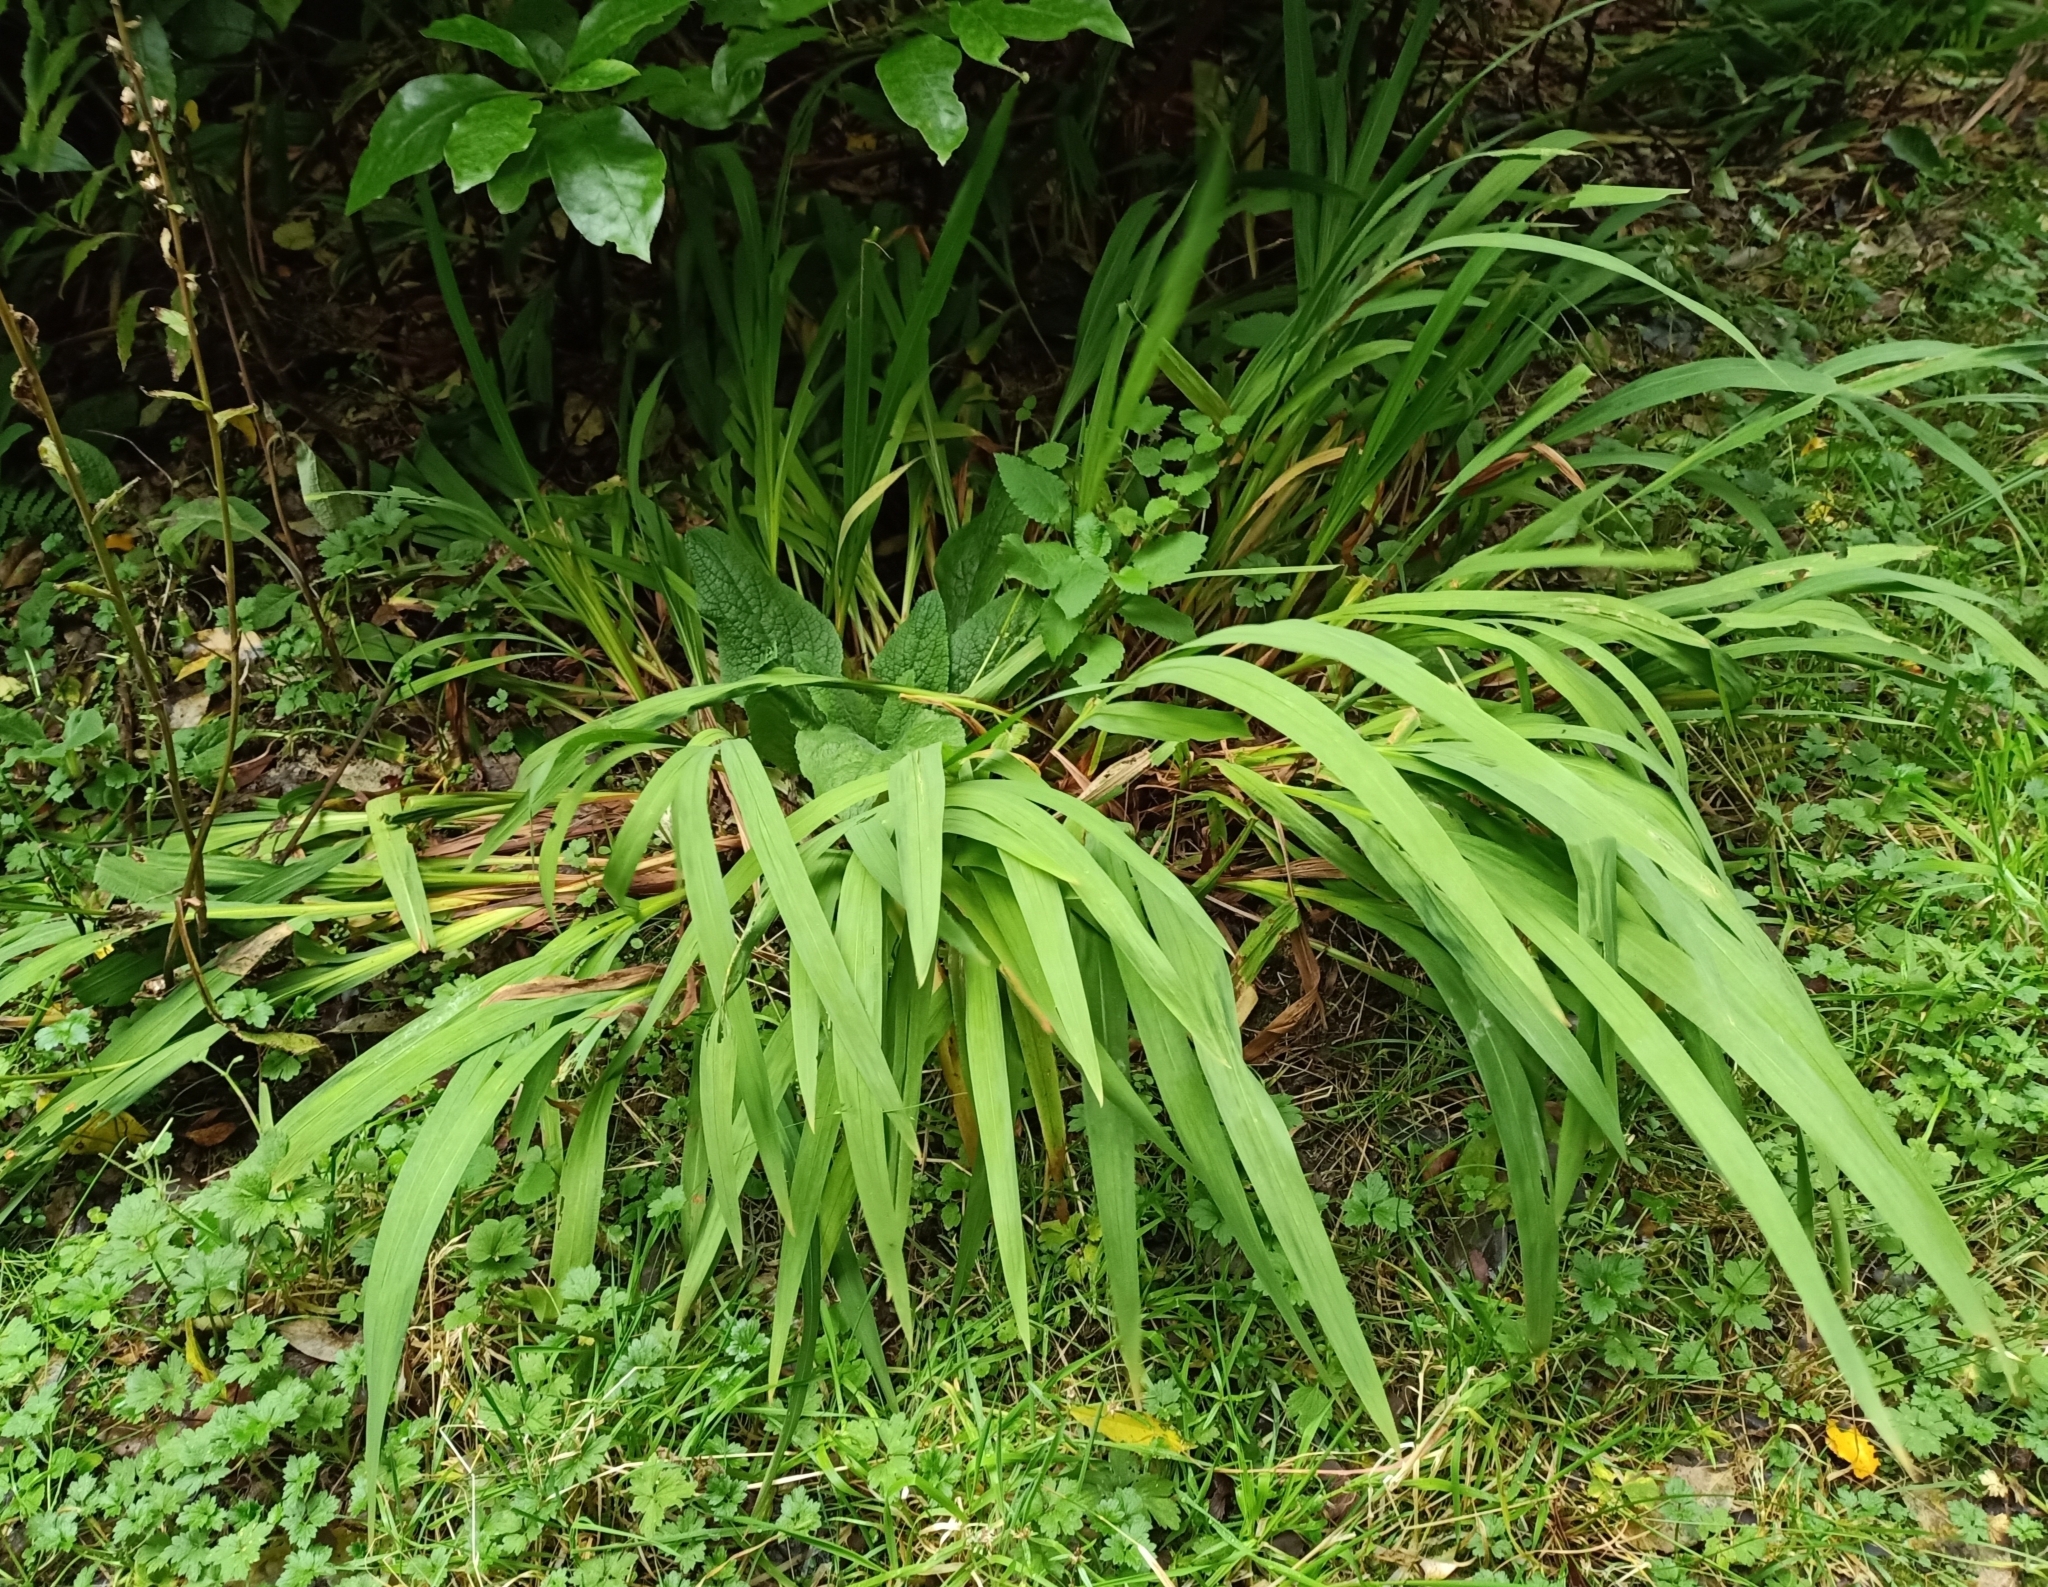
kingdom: Plantae
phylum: Tracheophyta
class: Liliopsida
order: Asparagales
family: Iridaceae
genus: Crocosmia
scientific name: Crocosmia crocosmiiflora
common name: Montbretia
